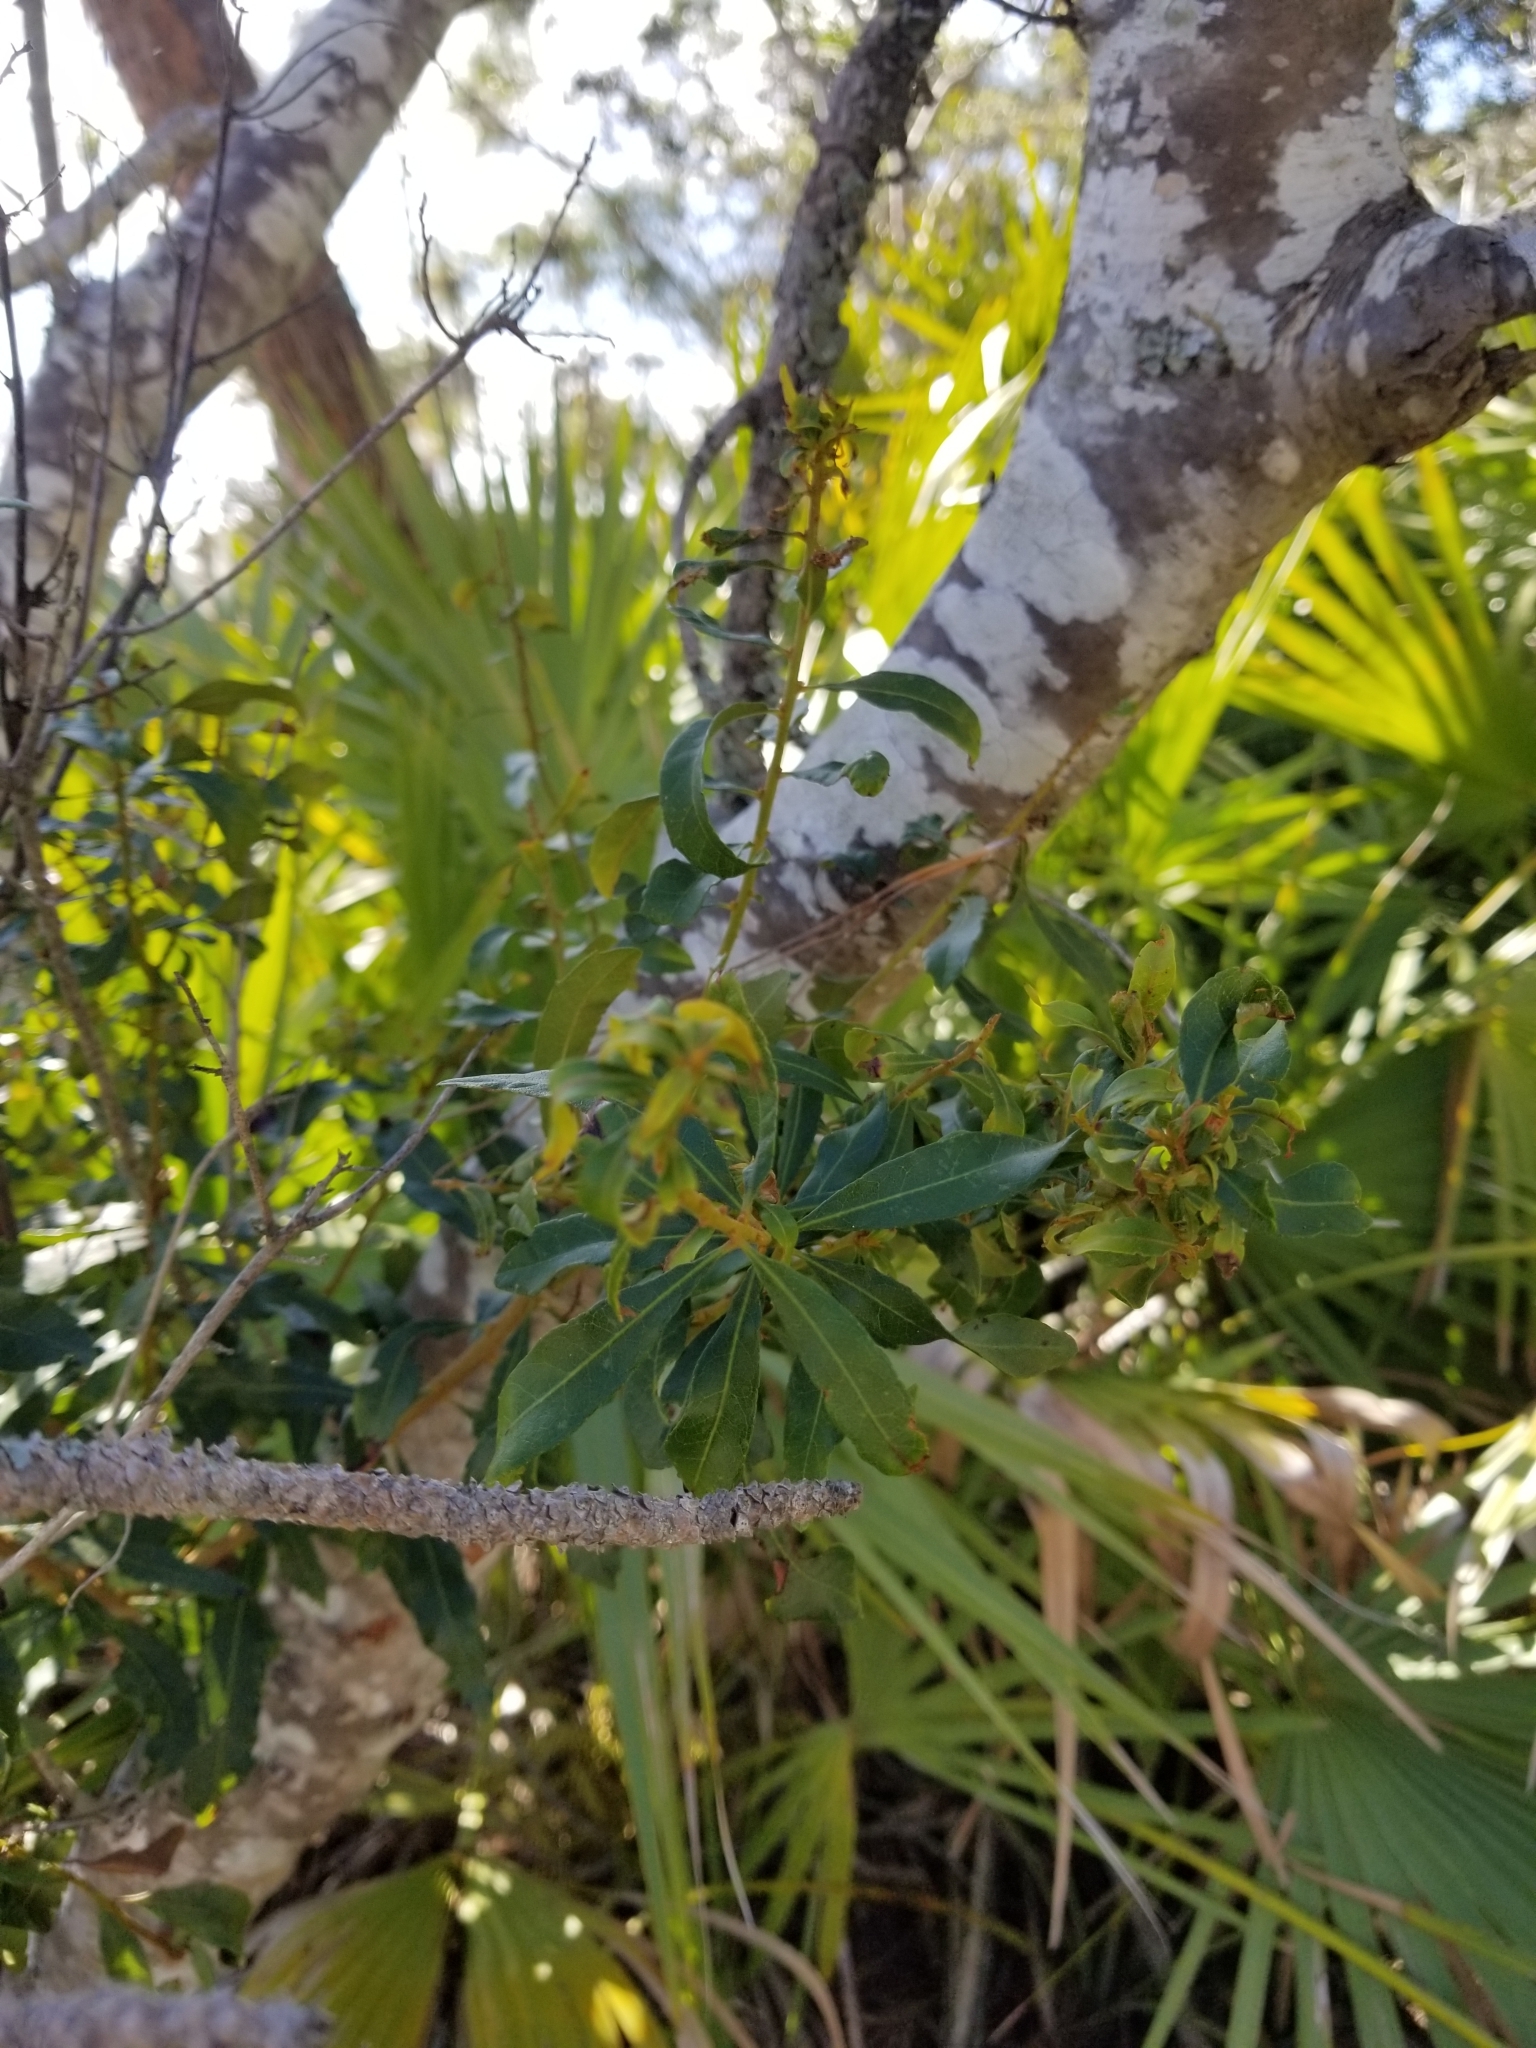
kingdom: Plantae
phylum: Tracheophyta
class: Magnoliopsida
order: Fagales
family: Myricaceae
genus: Morella
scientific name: Morella cerifera
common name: Wax myrtle
